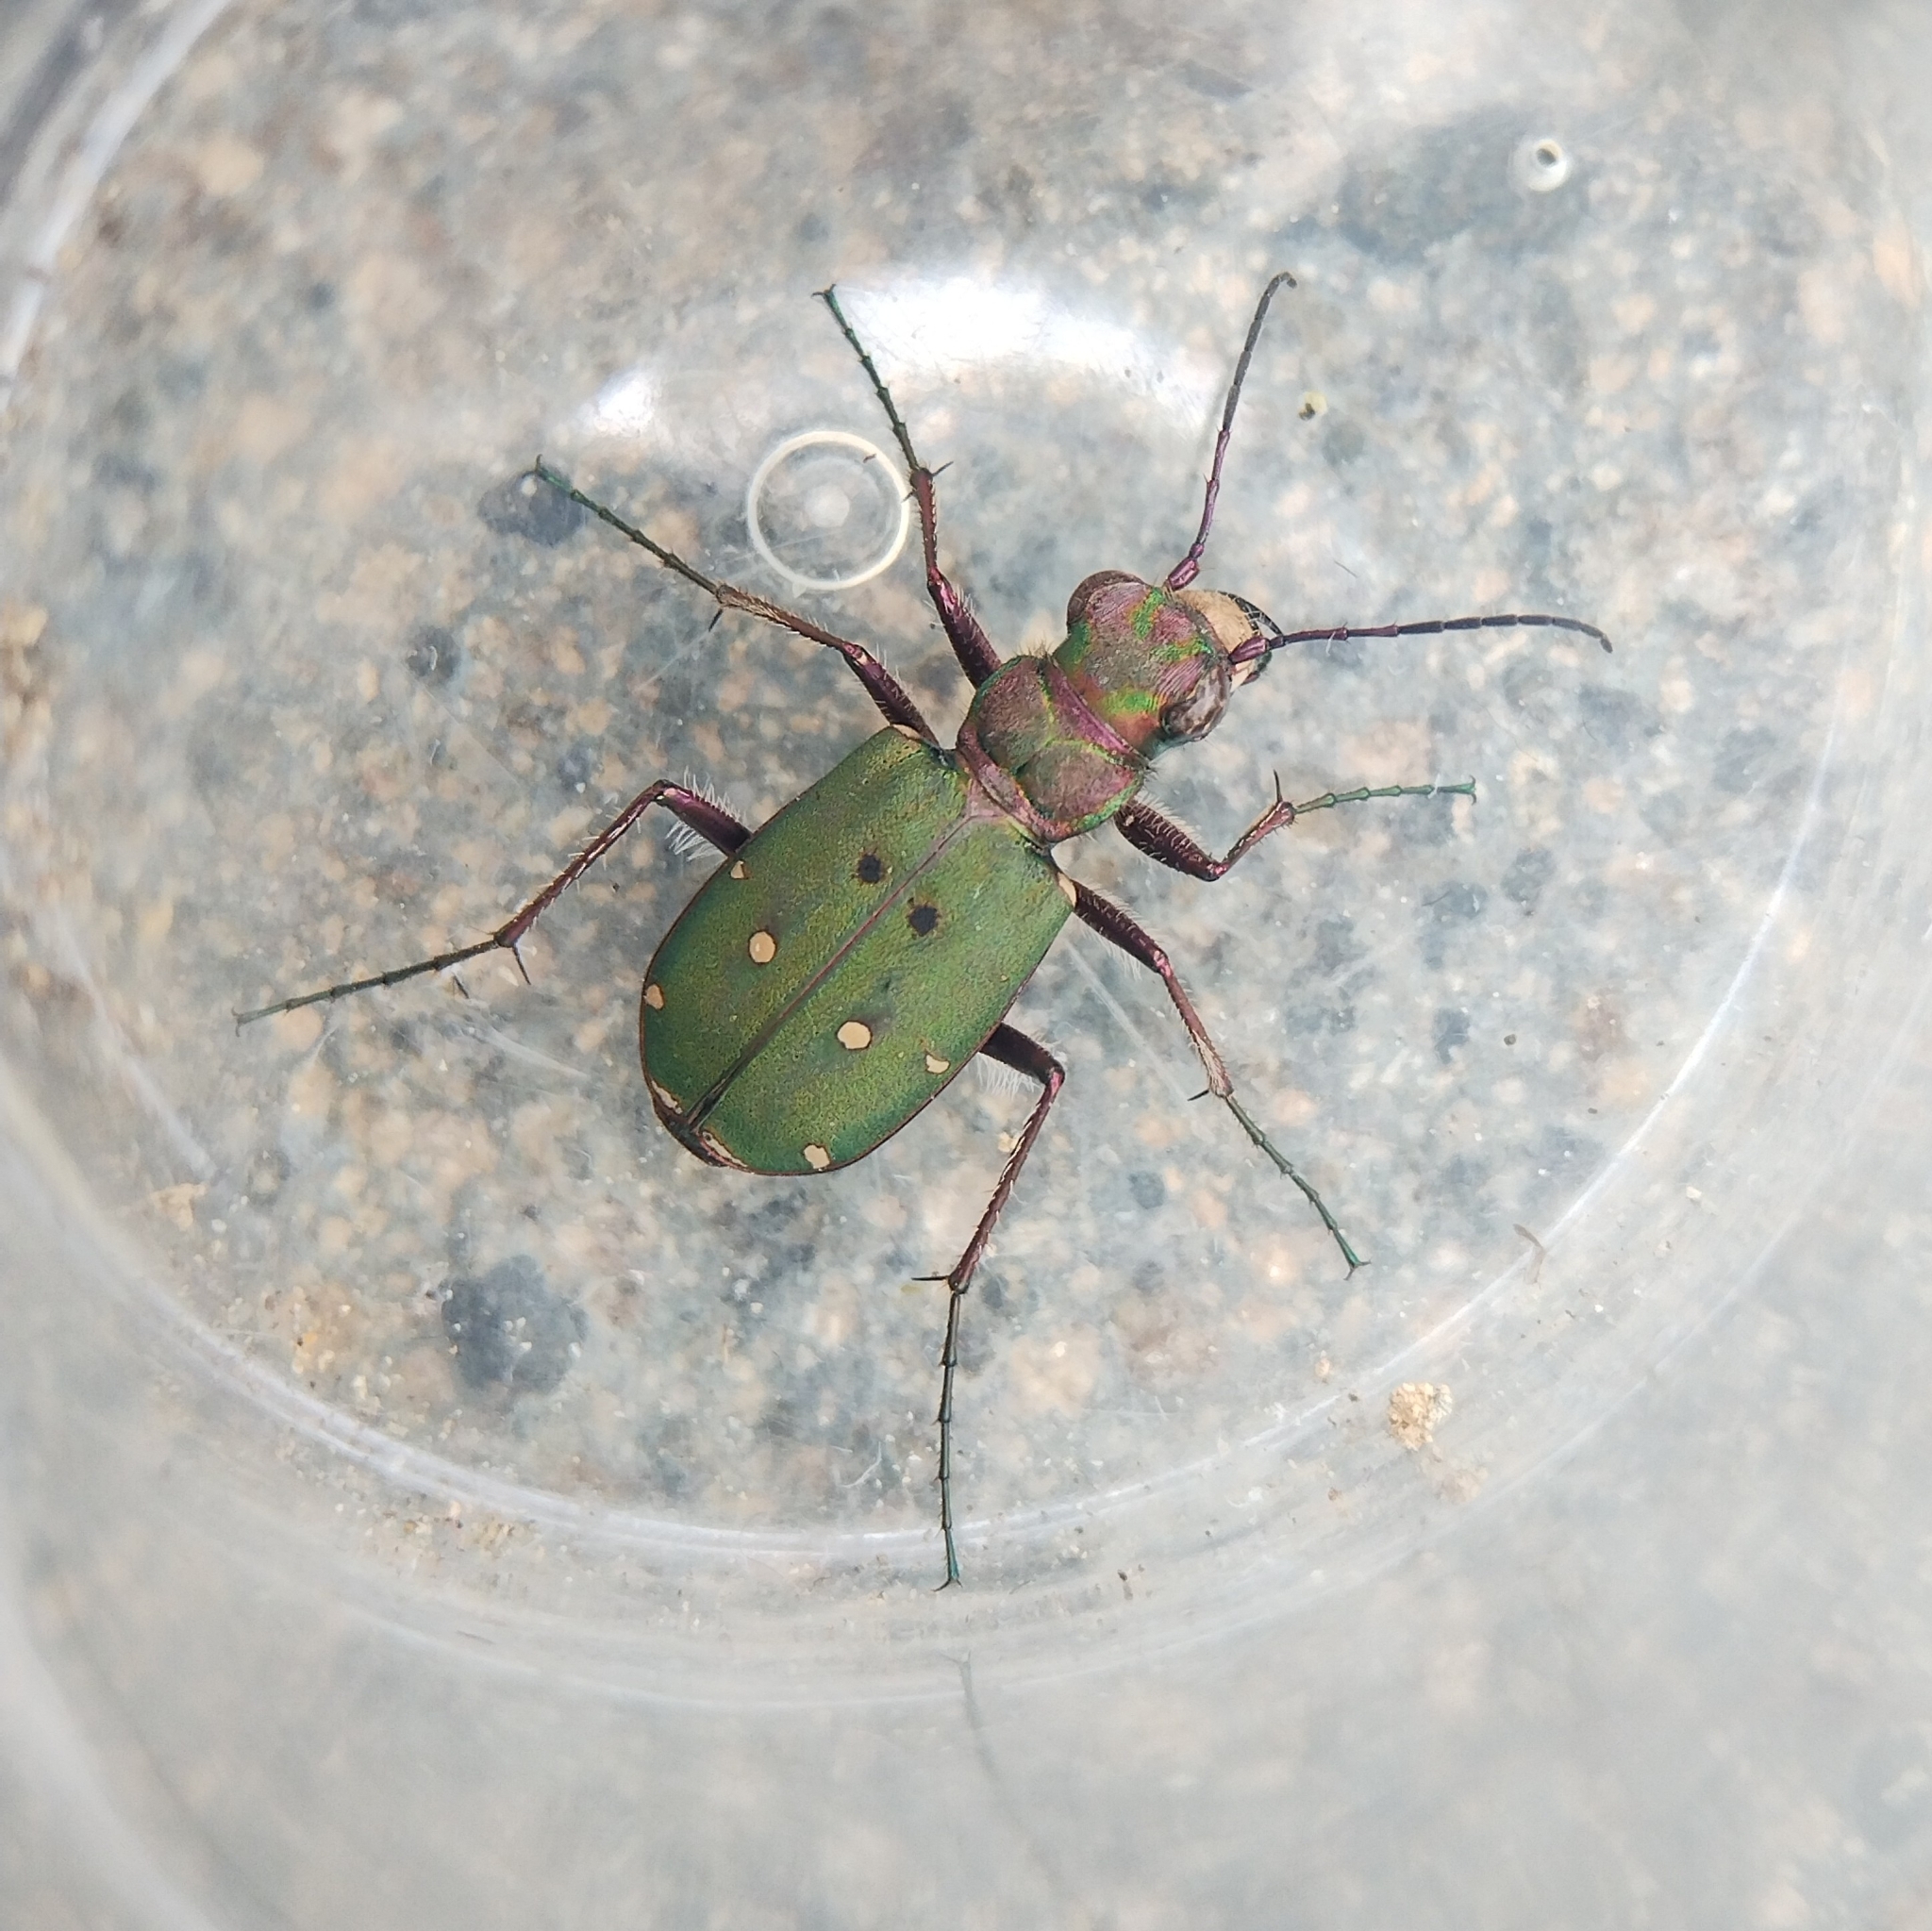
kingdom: Animalia
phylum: Arthropoda
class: Insecta
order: Coleoptera
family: Carabidae
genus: Cicindela
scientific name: Cicindela campestris
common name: Common tiger beetle
